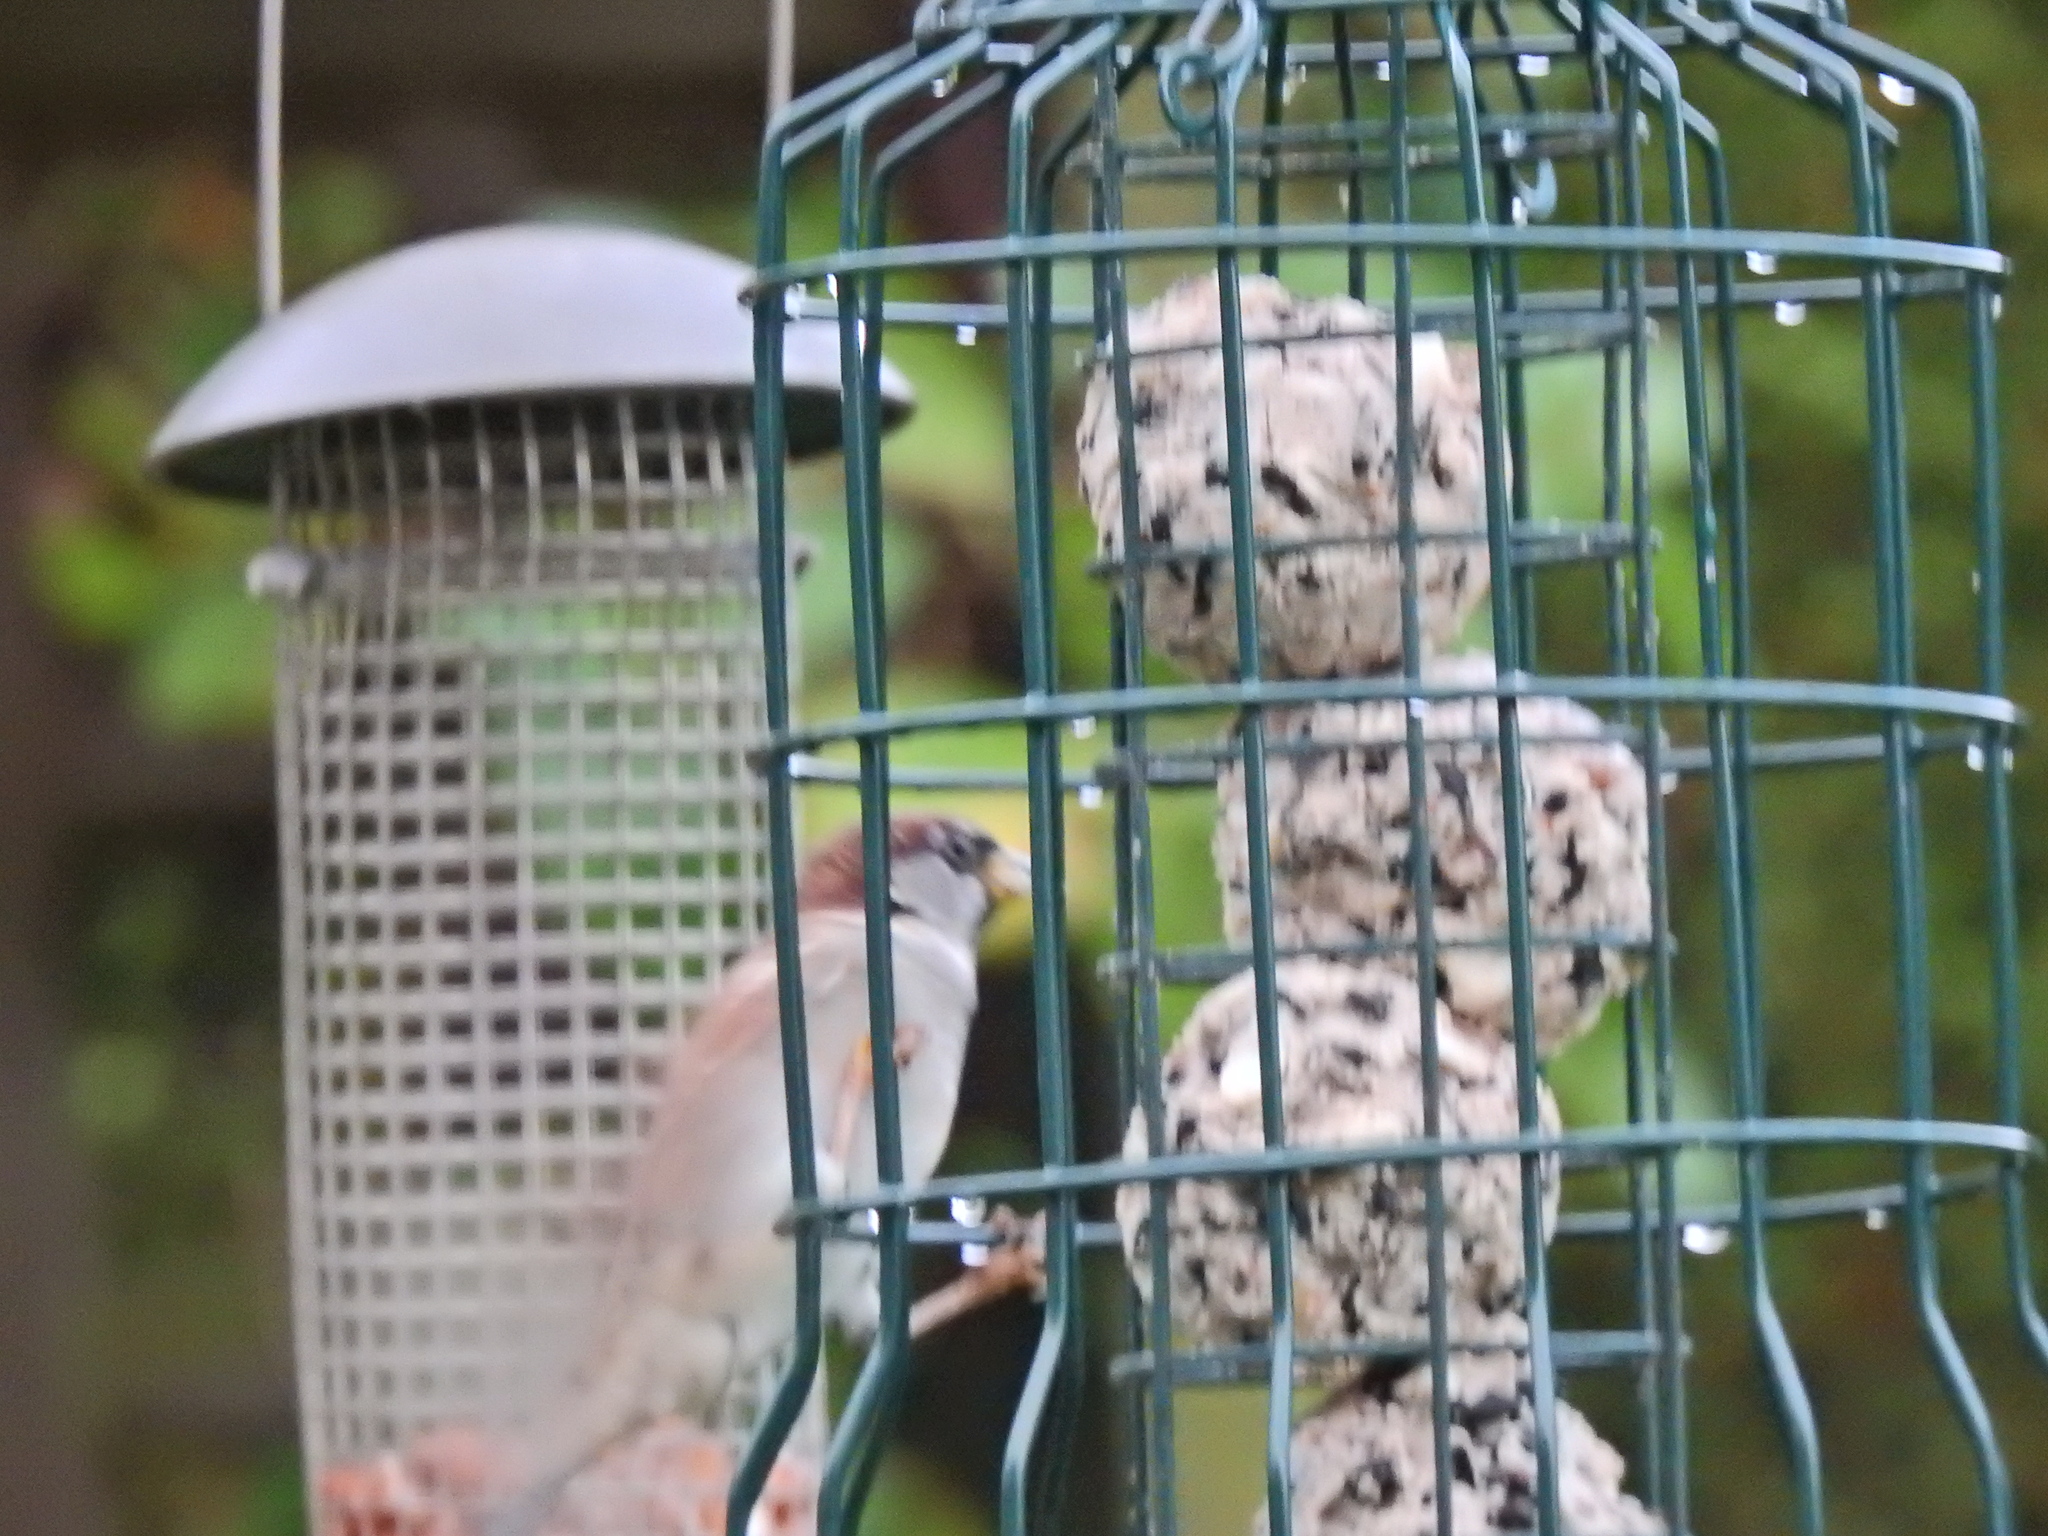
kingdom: Animalia
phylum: Chordata
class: Aves
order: Passeriformes
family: Passeridae
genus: Passer
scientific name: Passer domesticus
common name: House sparrow
